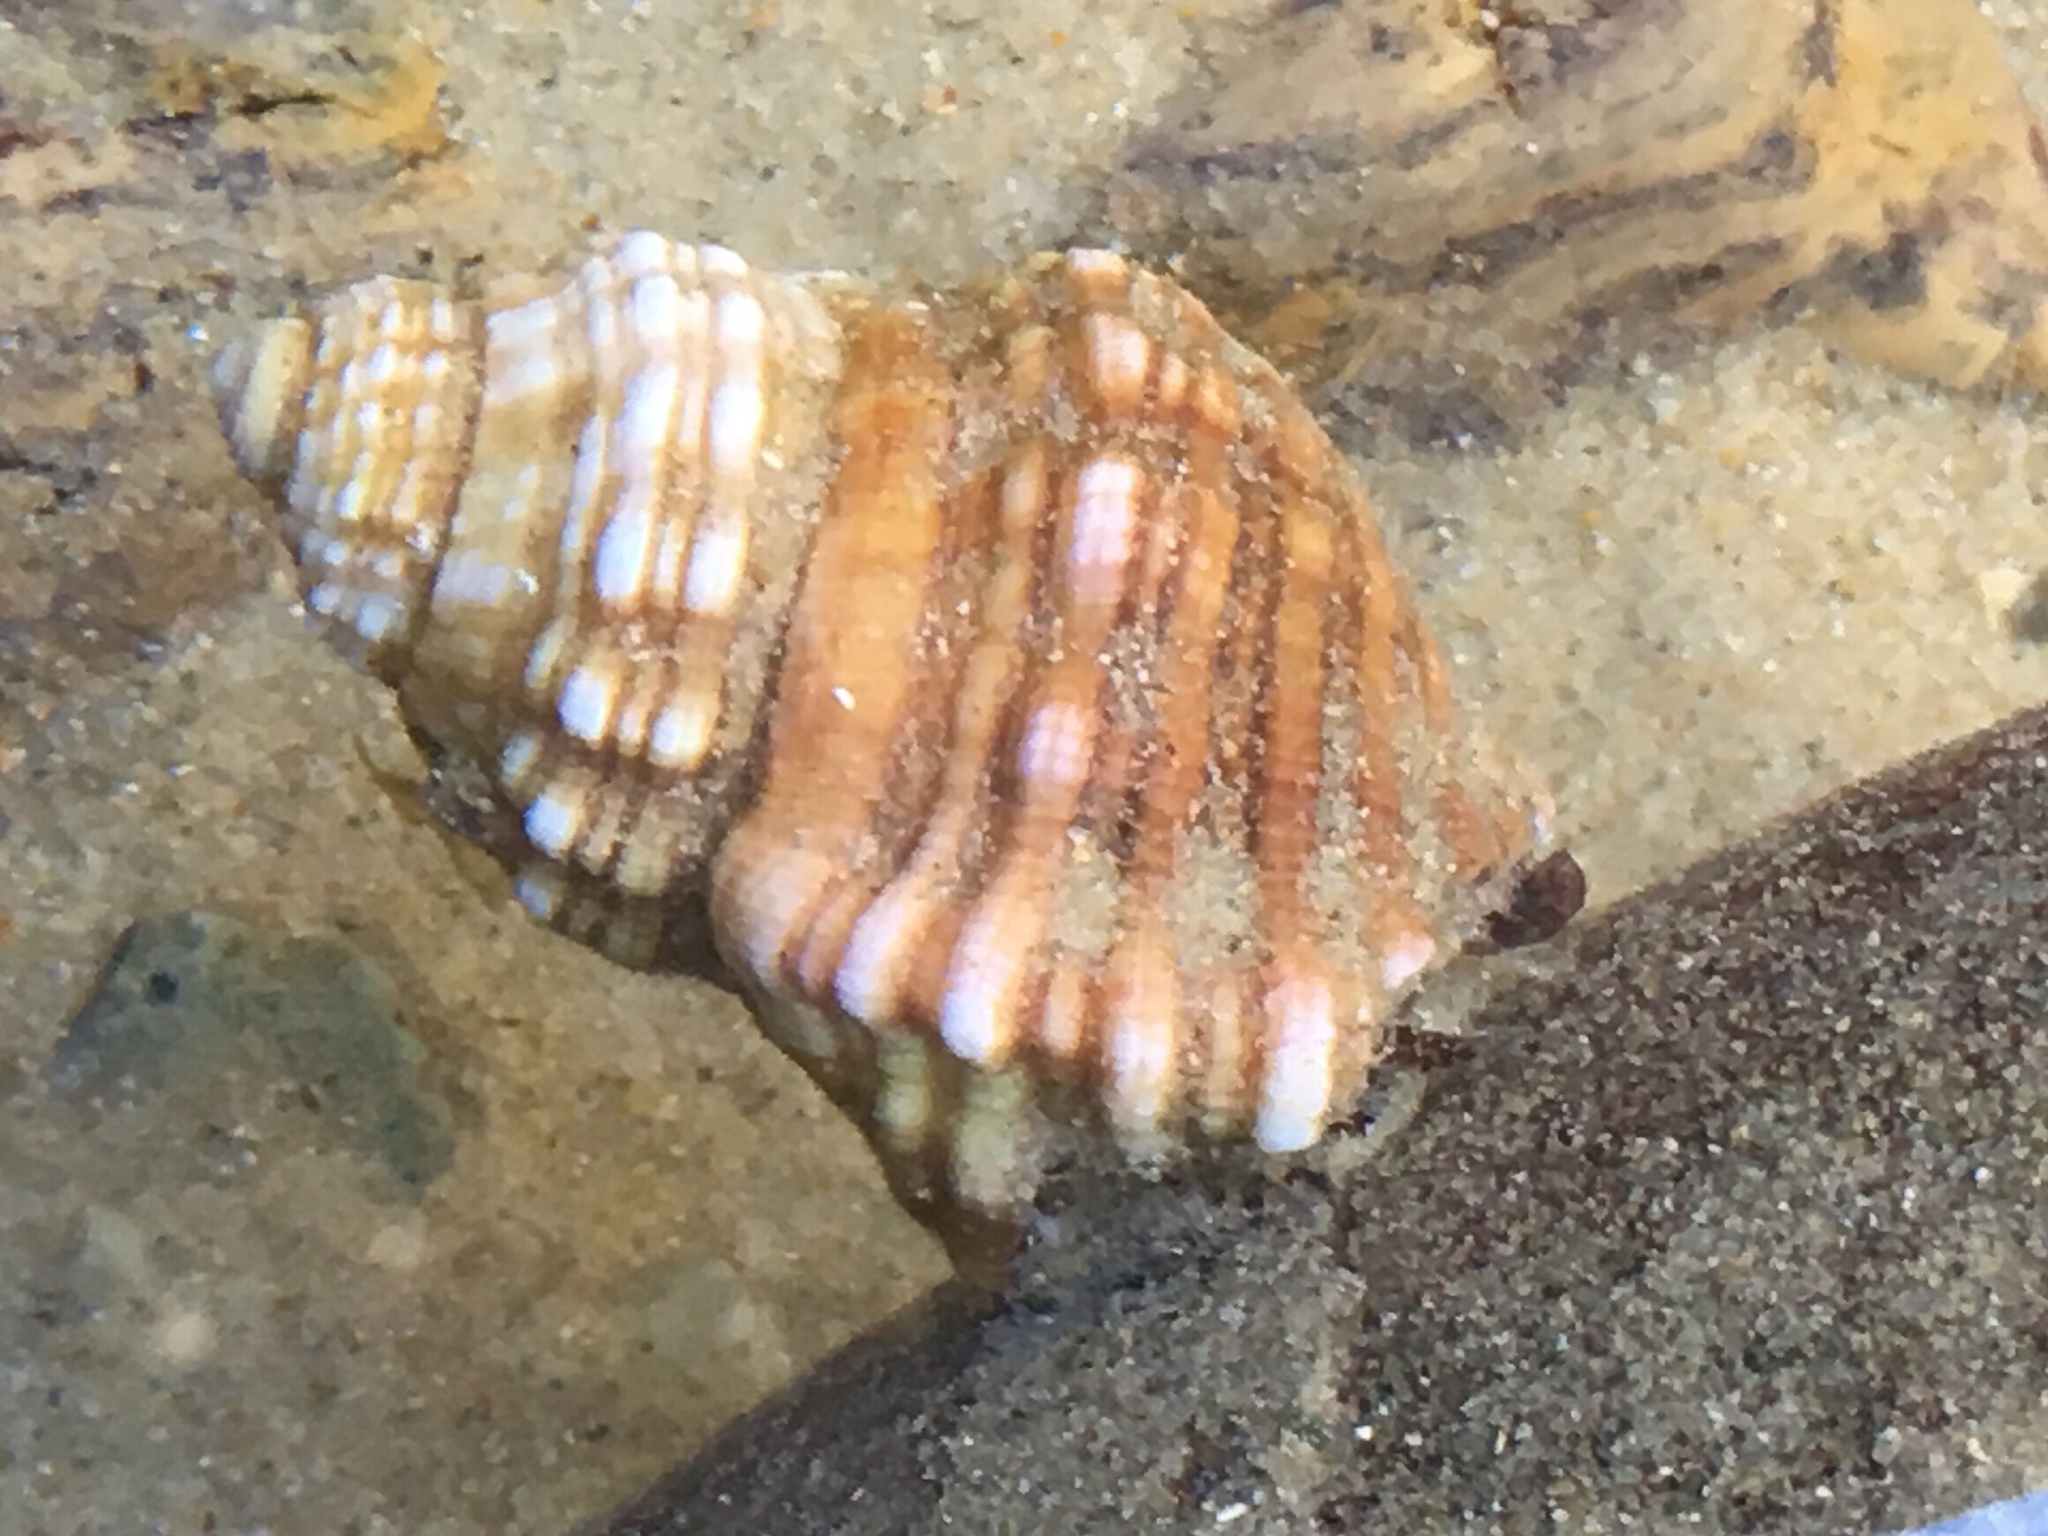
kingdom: Animalia
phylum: Mollusca
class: Gastropoda
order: Littorinimorpha
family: Cymatiidae
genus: Cabestana
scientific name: Cabestana spengleri
